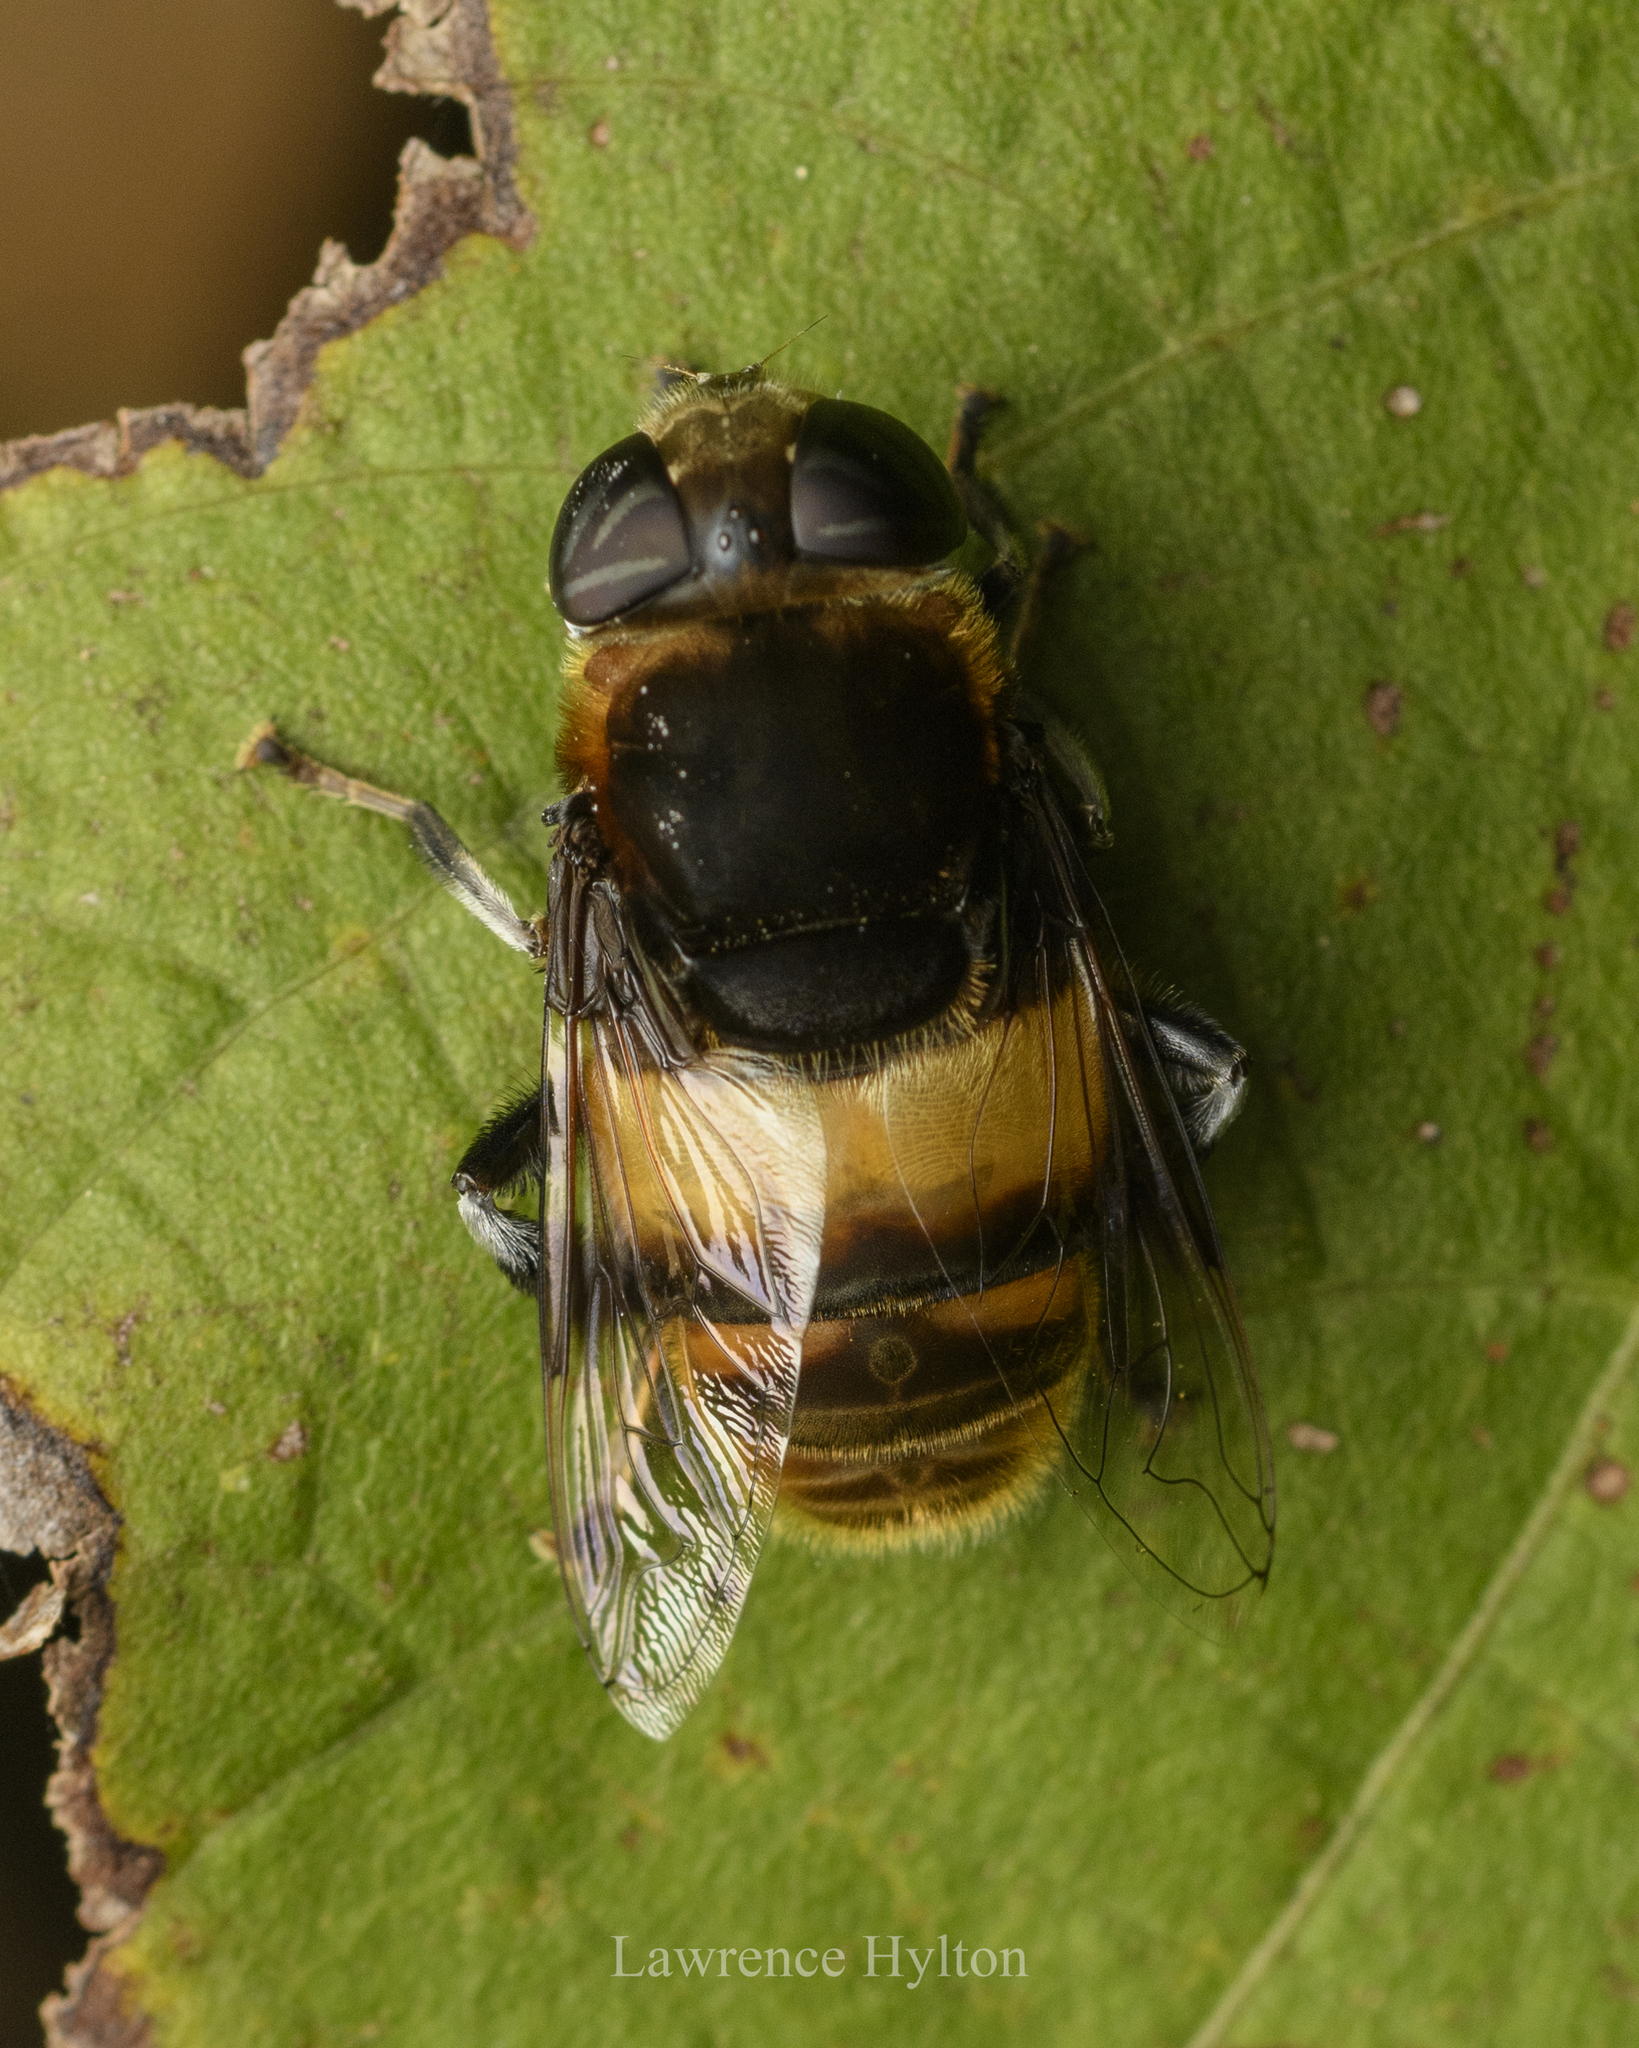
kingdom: Animalia
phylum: Arthropoda
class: Insecta
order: Diptera
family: Syrphidae
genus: Phytomia
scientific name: Phytomia zonata
